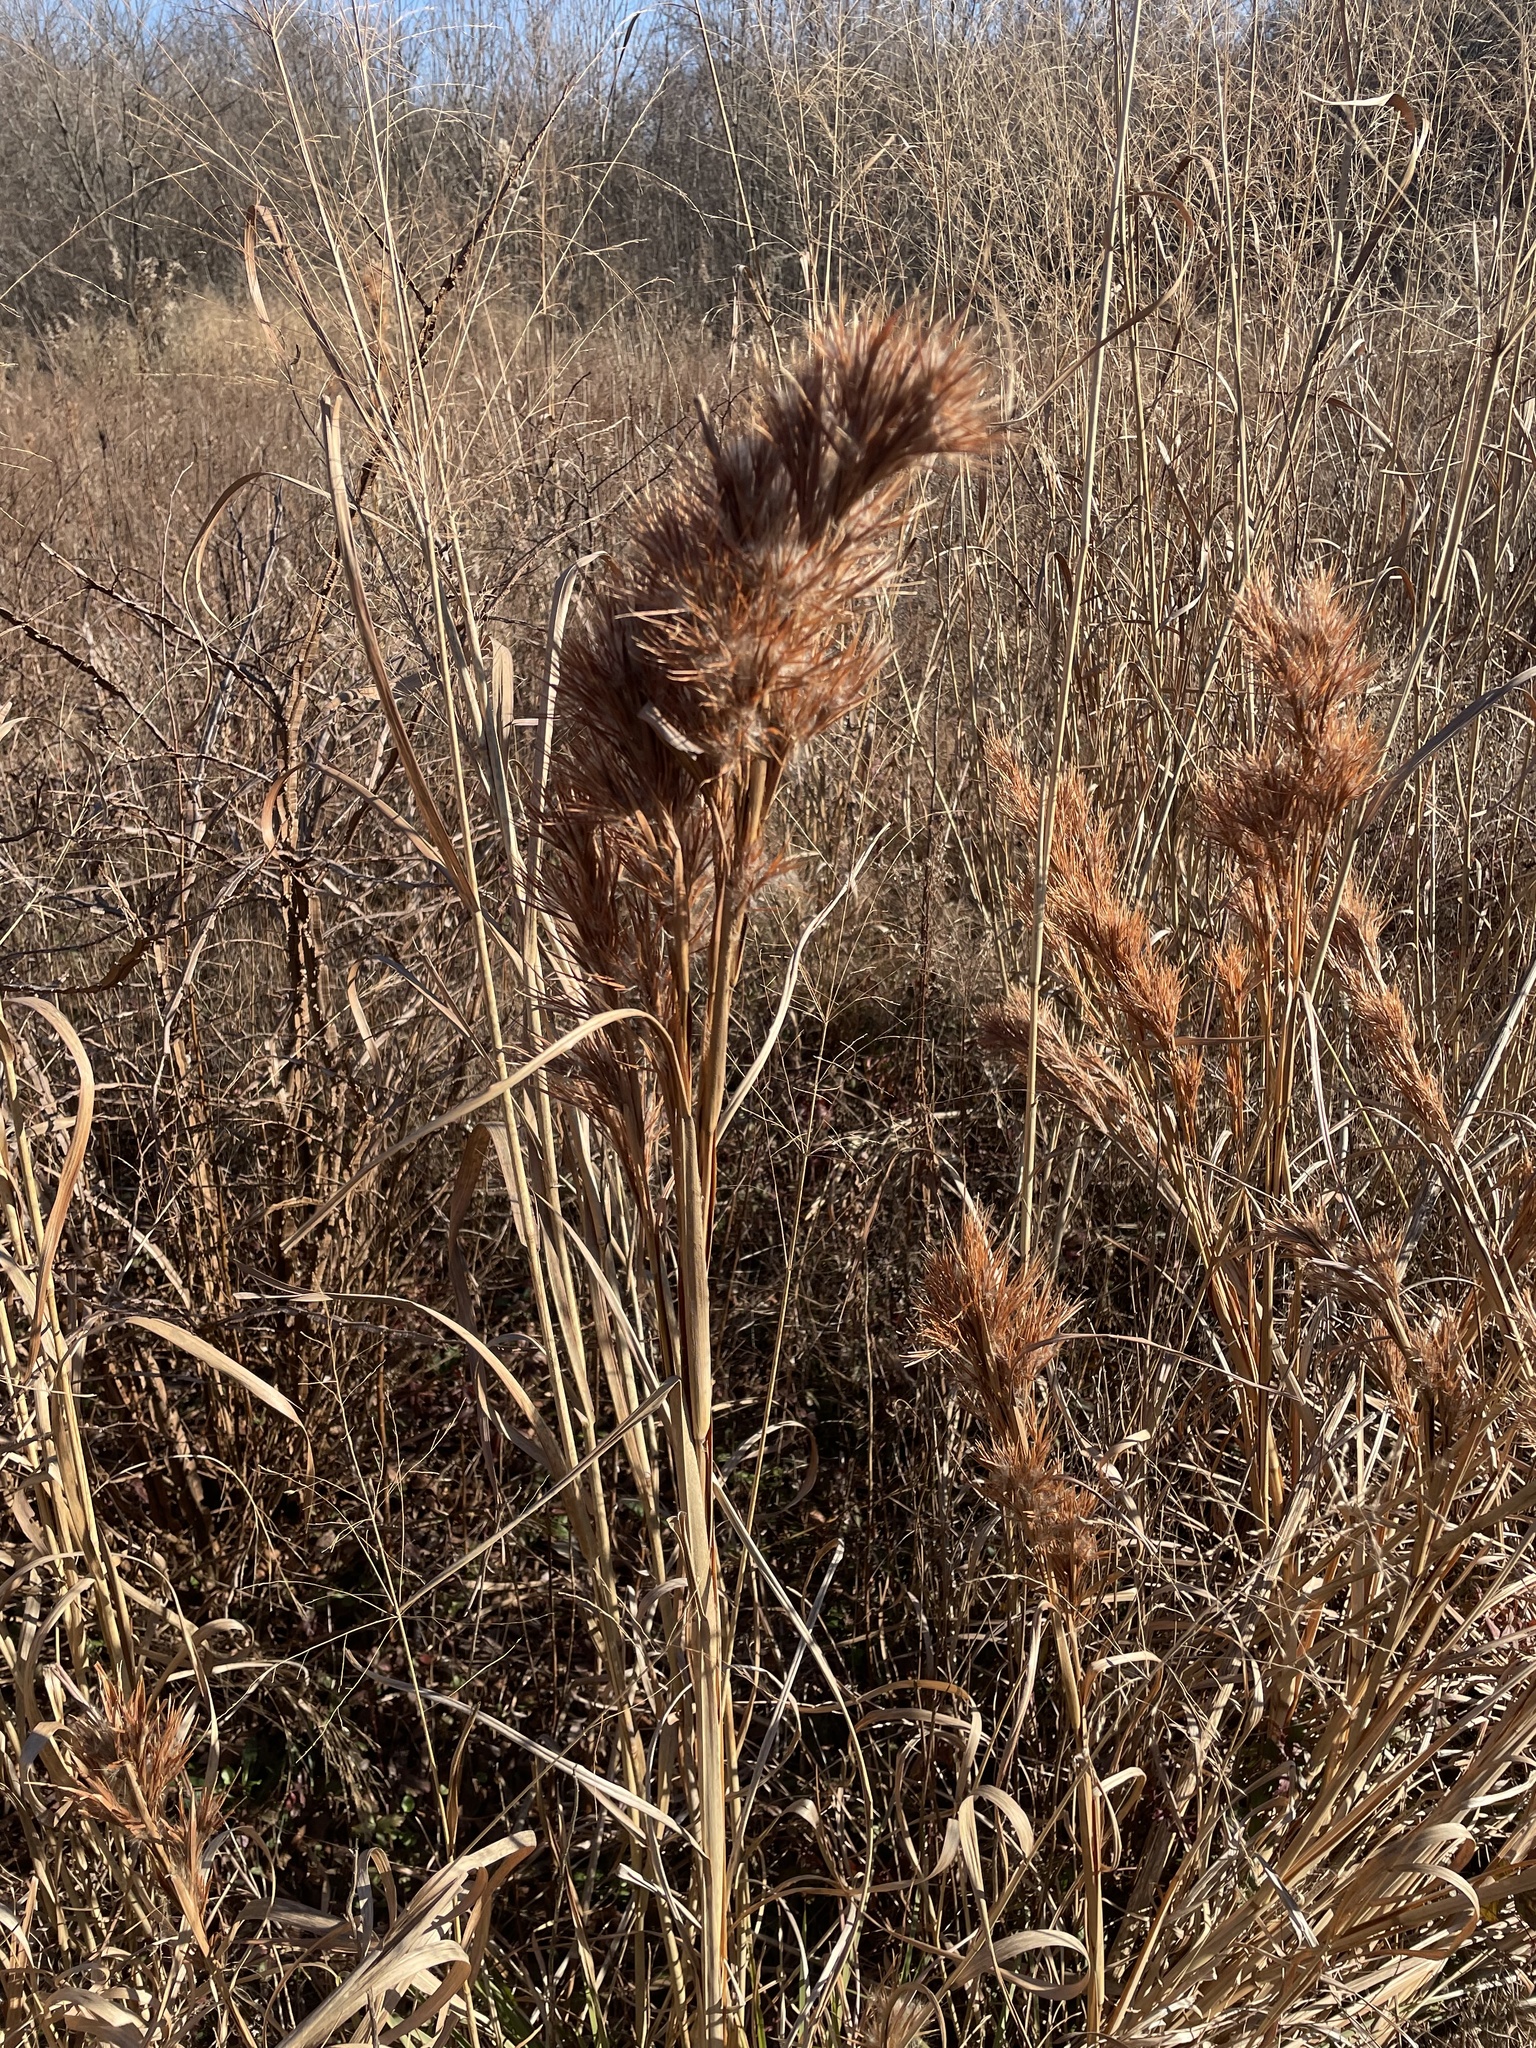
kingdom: Plantae
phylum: Tracheophyta
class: Liliopsida
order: Poales
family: Poaceae
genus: Andropogon
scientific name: Andropogon tenuispatheus
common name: Bushy bluestem
